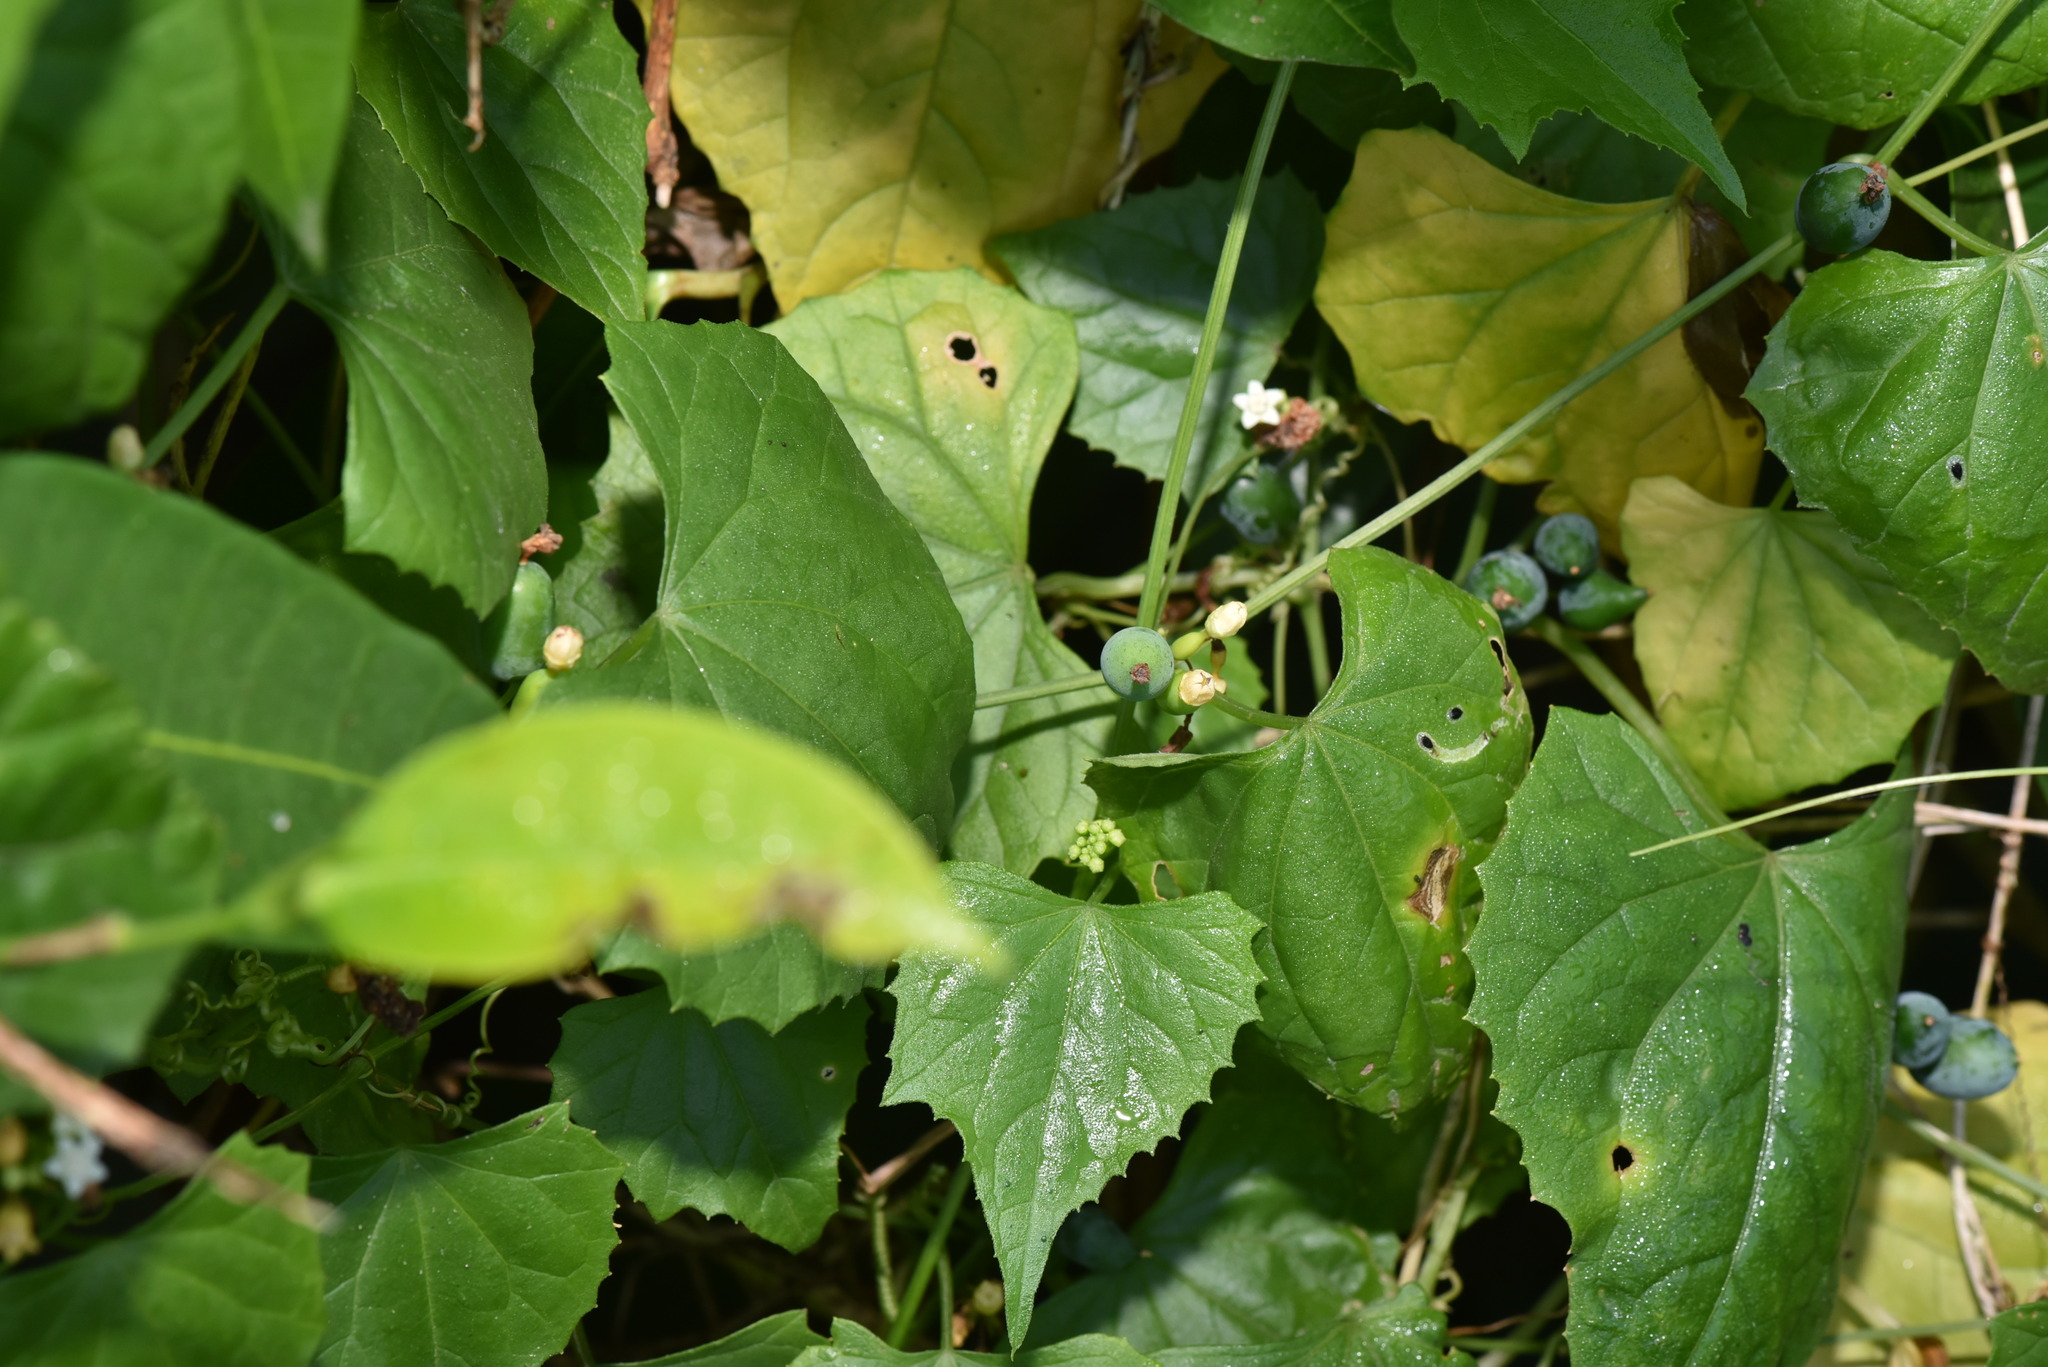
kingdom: Plantae
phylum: Tracheophyta
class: Magnoliopsida
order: Cucurbitales
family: Cucurbitaceae
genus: Zehneria
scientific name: Zehneria guamensis
